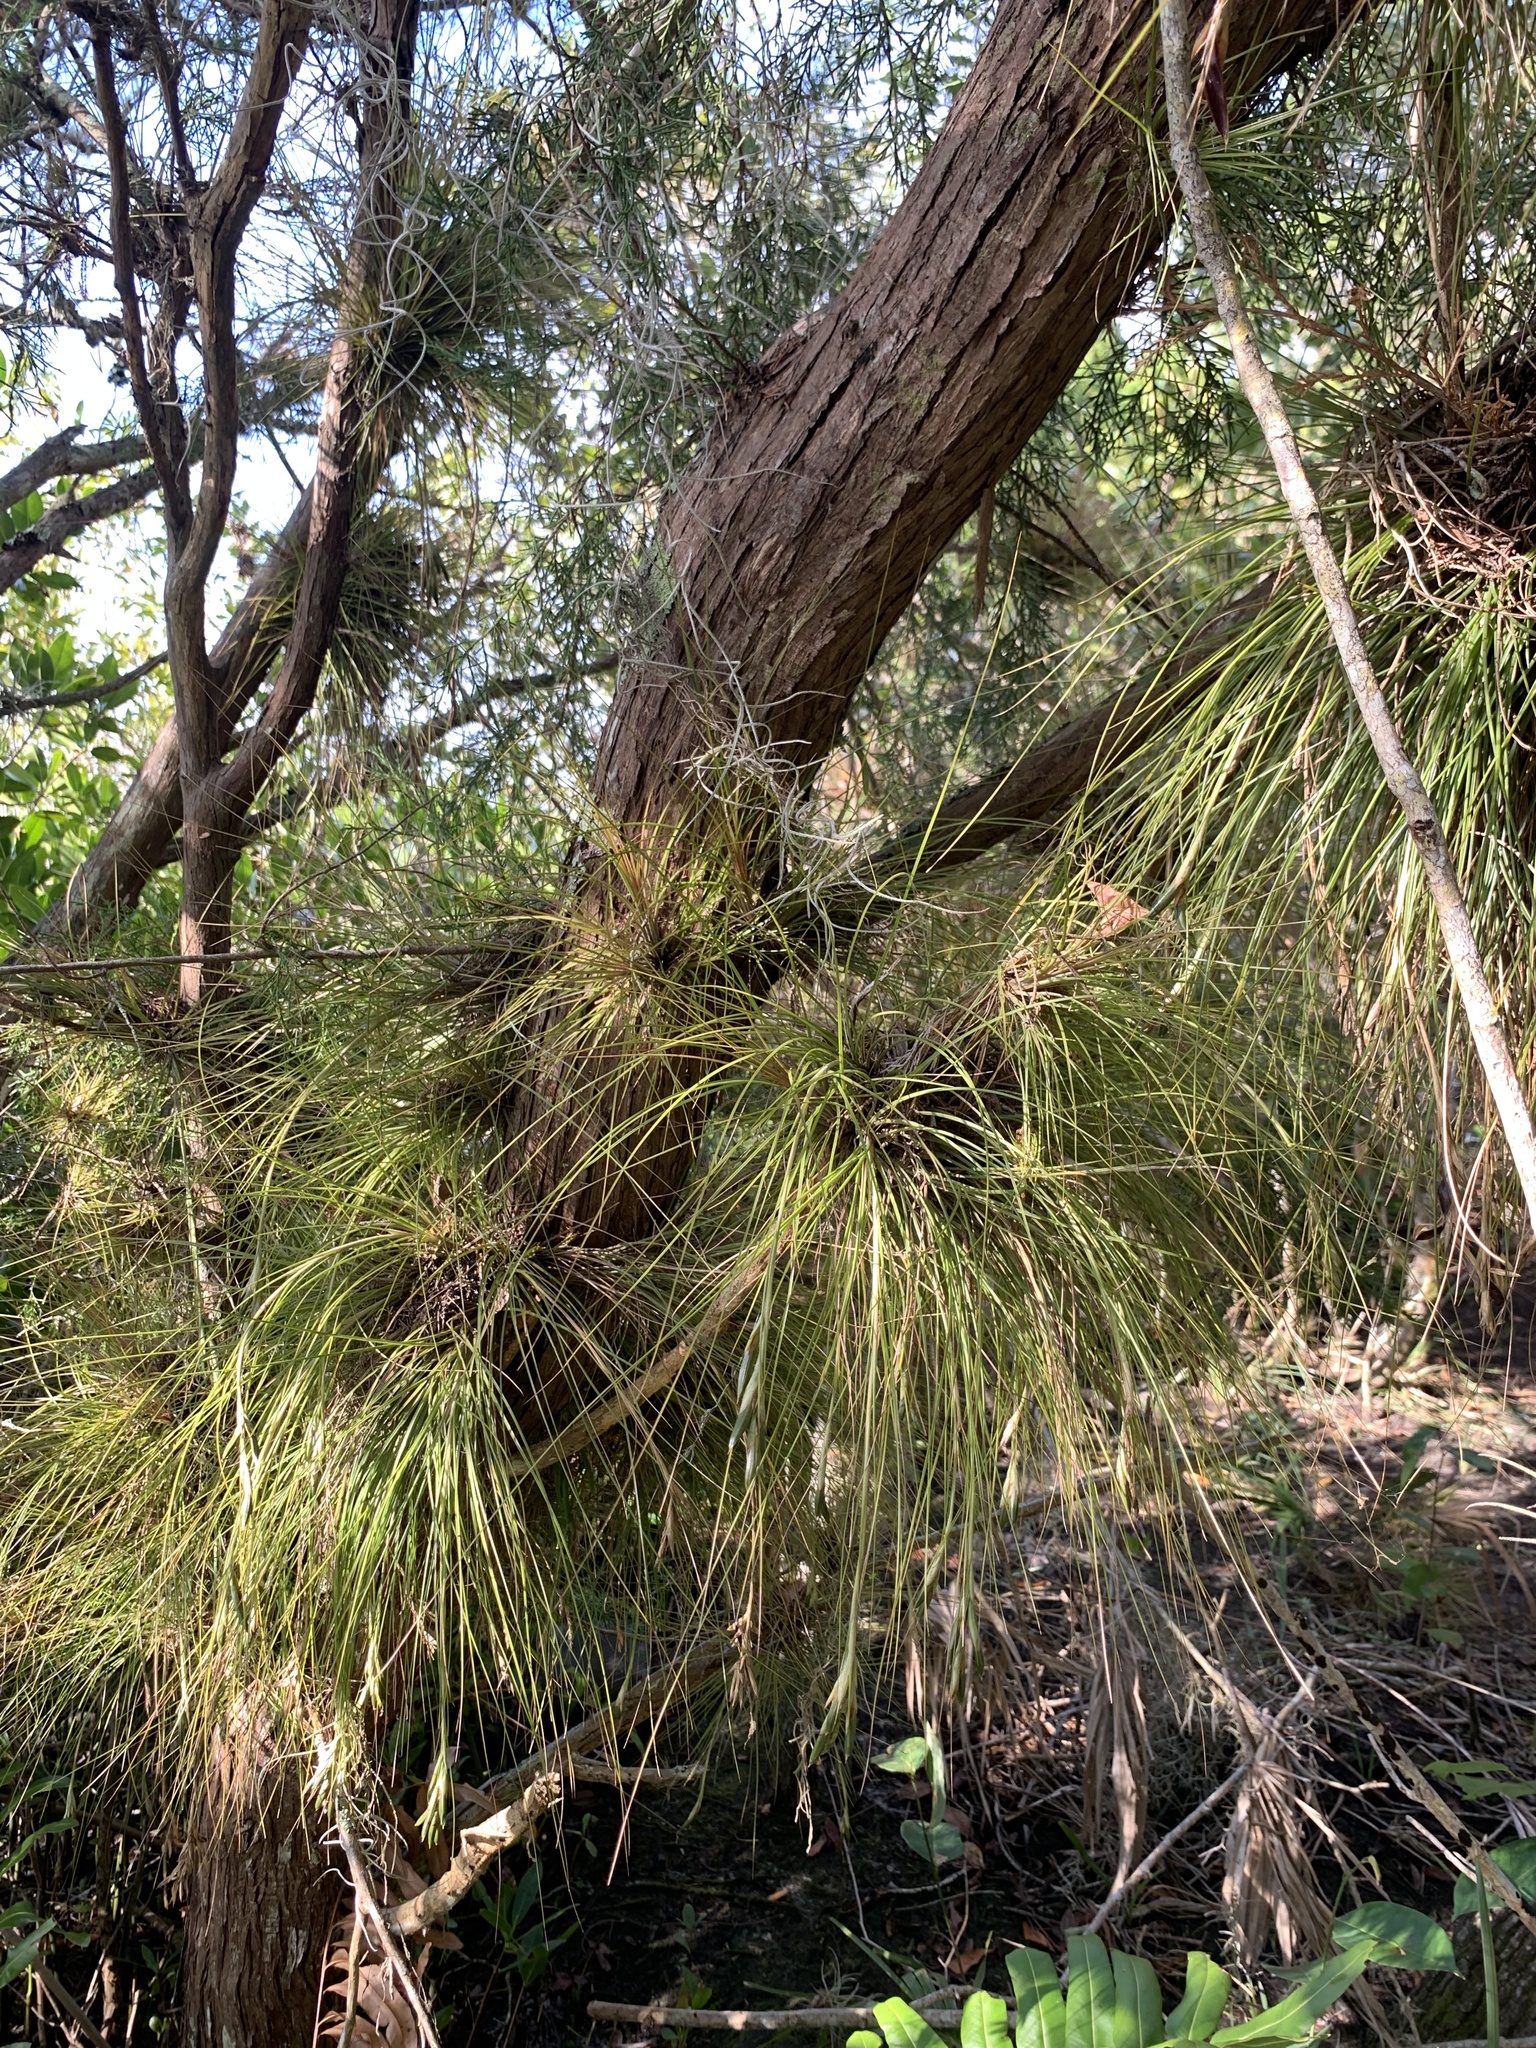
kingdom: Plantae
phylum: Tracheophyta
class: Liliopsida
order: Poales
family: Bromeliaceae
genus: Tillandsia
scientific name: Tillandsia setacea
